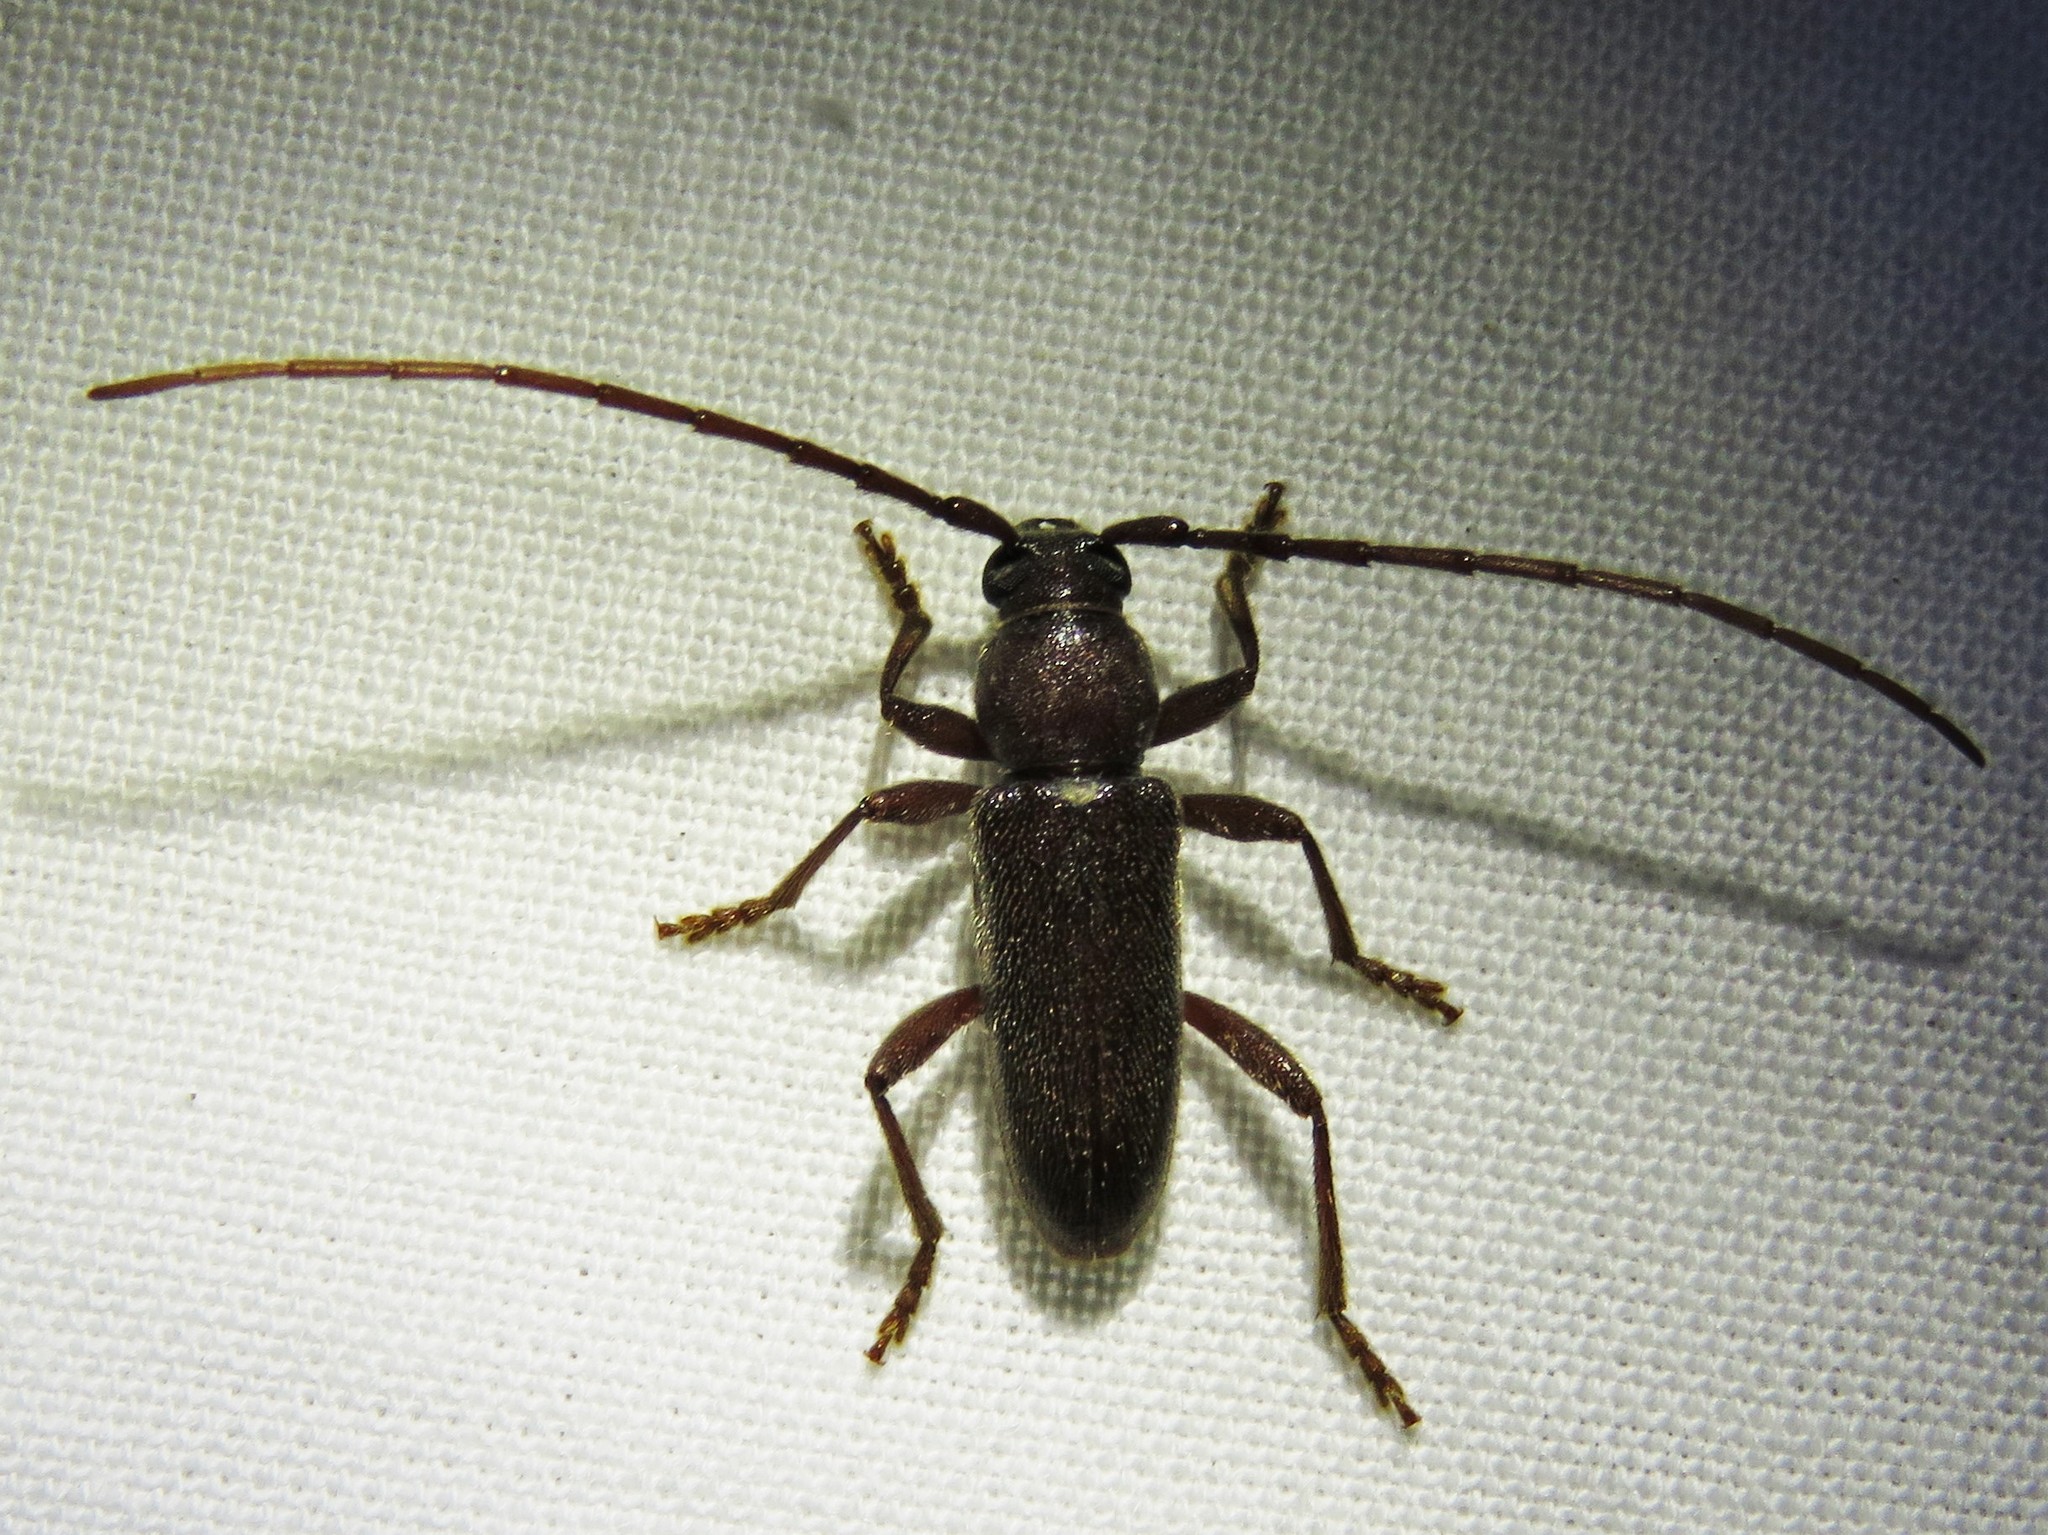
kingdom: Animalia
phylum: Arthropoda
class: Insecta
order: Coleoptera
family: Cerambycidae
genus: Anelaphus
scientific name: Anelaphus moestus
